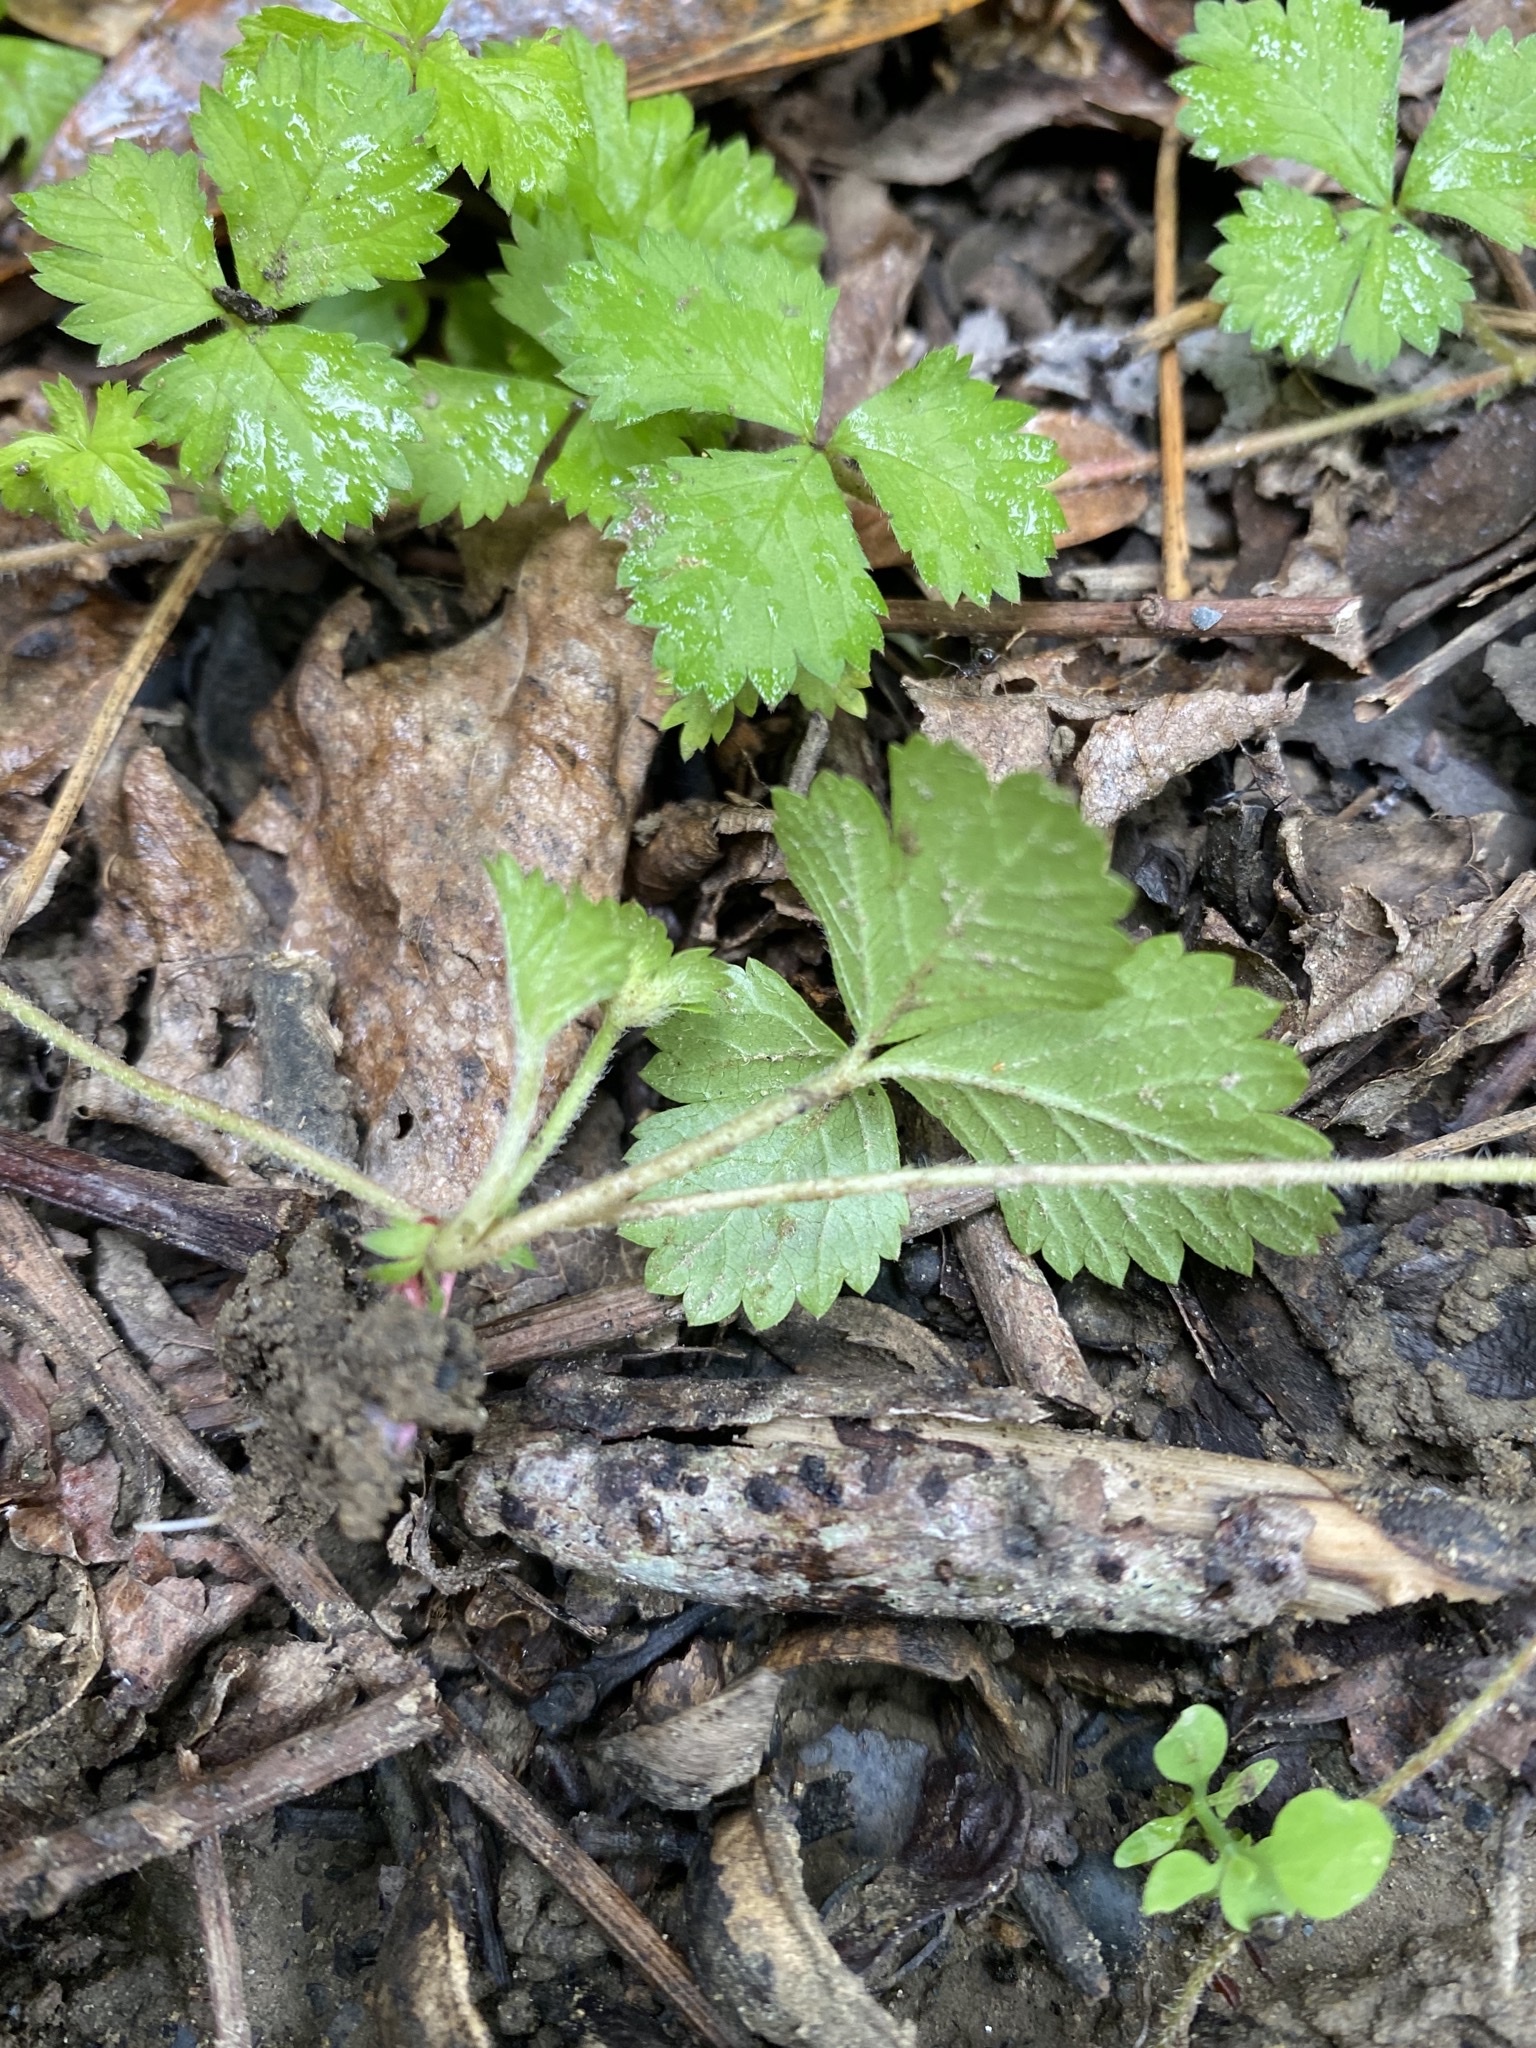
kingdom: Plantae
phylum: Tracheophyta
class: Magnoliopsida
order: Rosales
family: Rosaceae
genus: Potentilla
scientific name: Potentilla wallichiana
